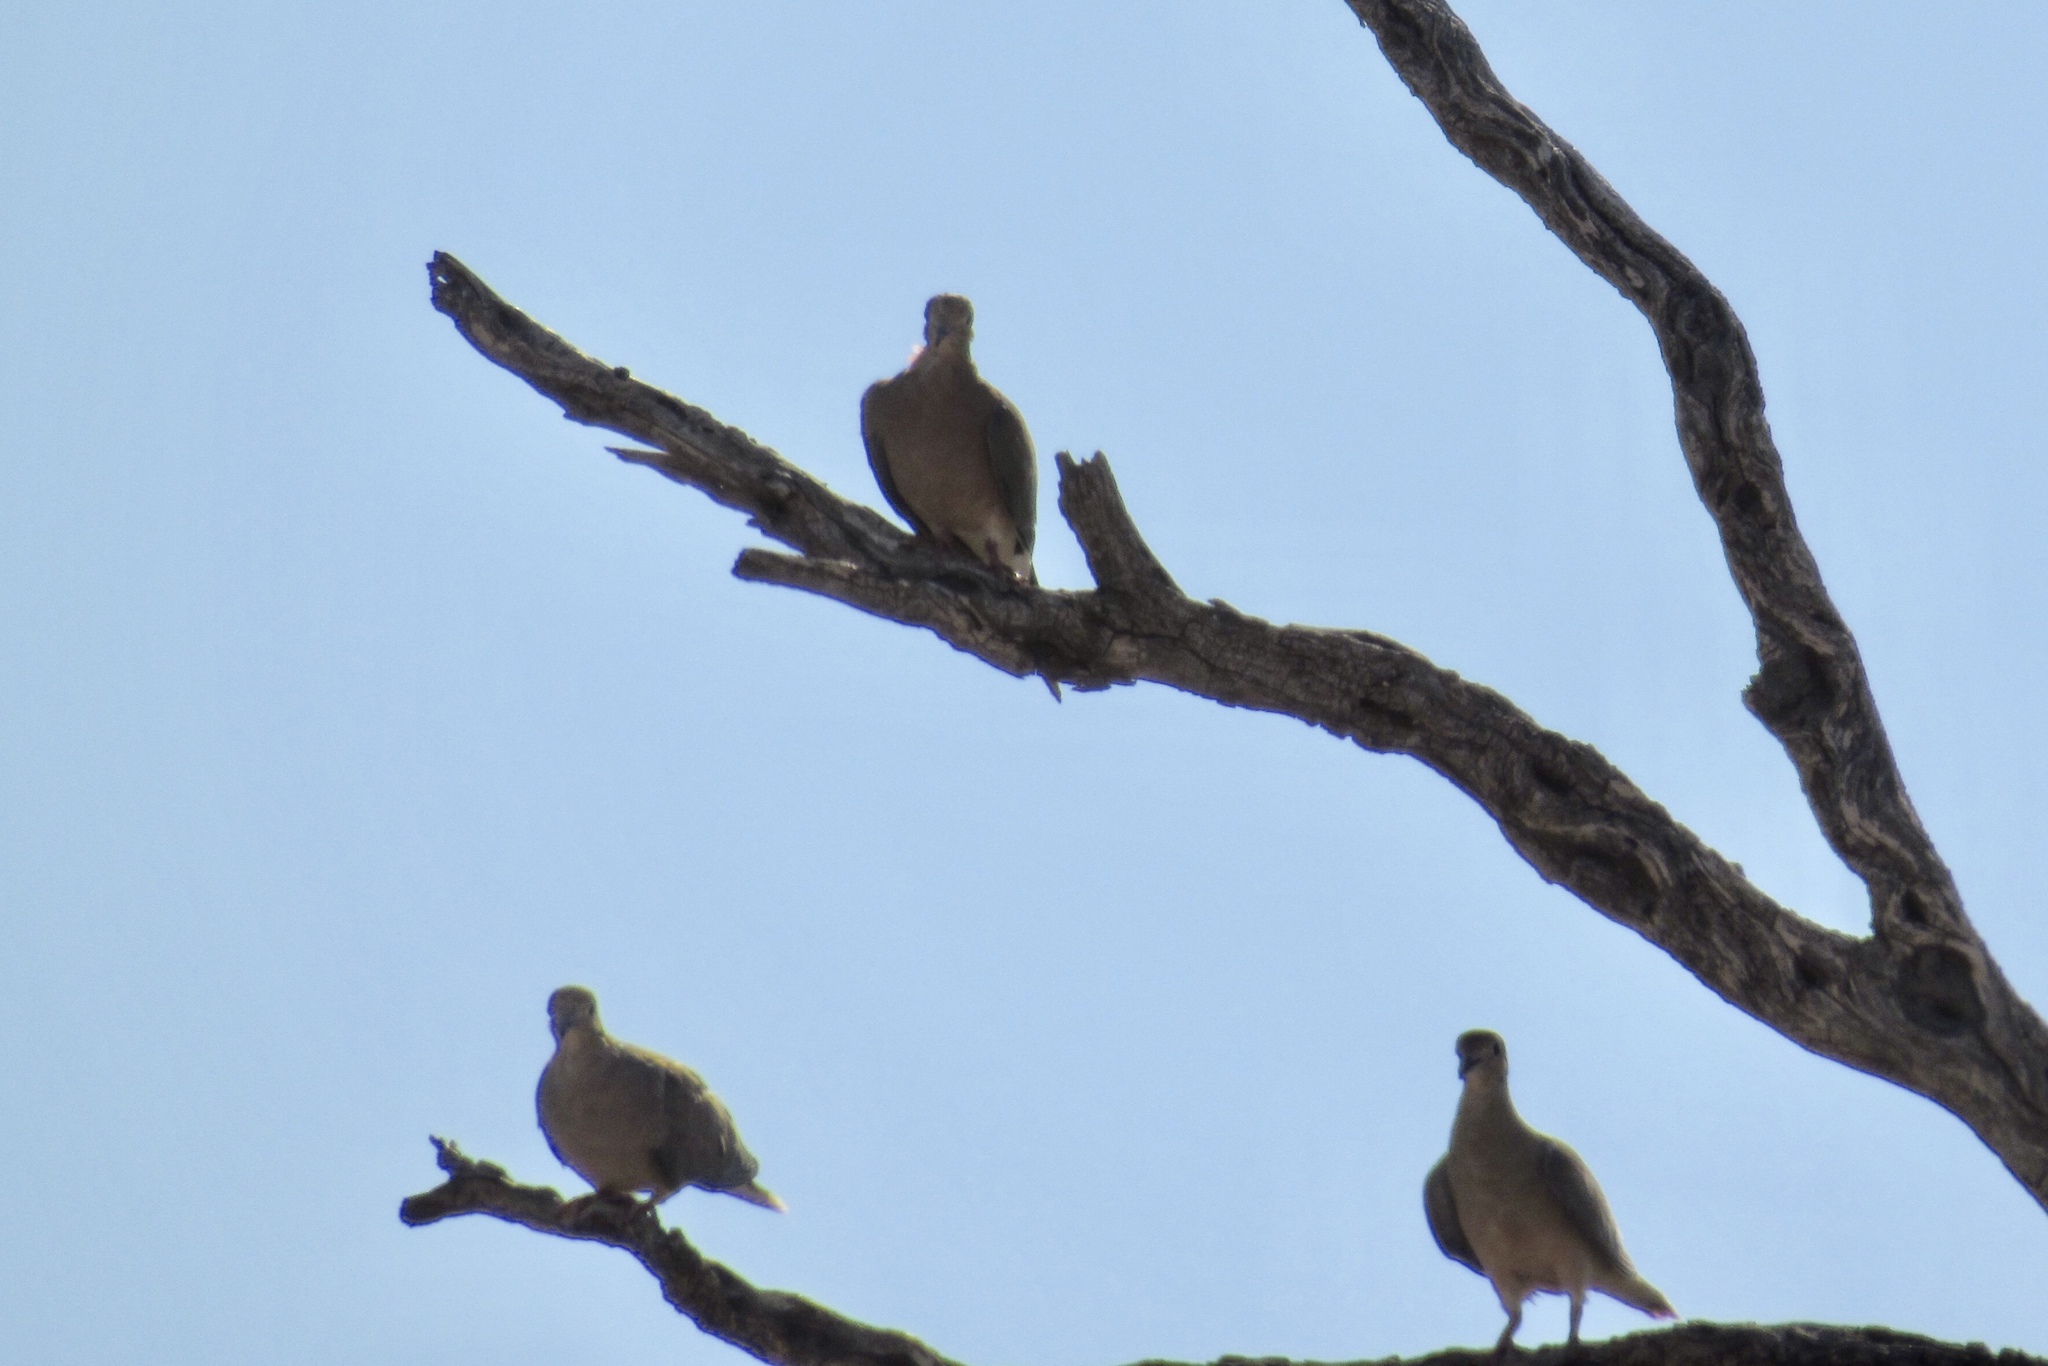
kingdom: Animalia
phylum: Chordata
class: Aves
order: Columbiformes
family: Columbidae
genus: Zenaida
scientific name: Zenaida macroura
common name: Mourning dove
